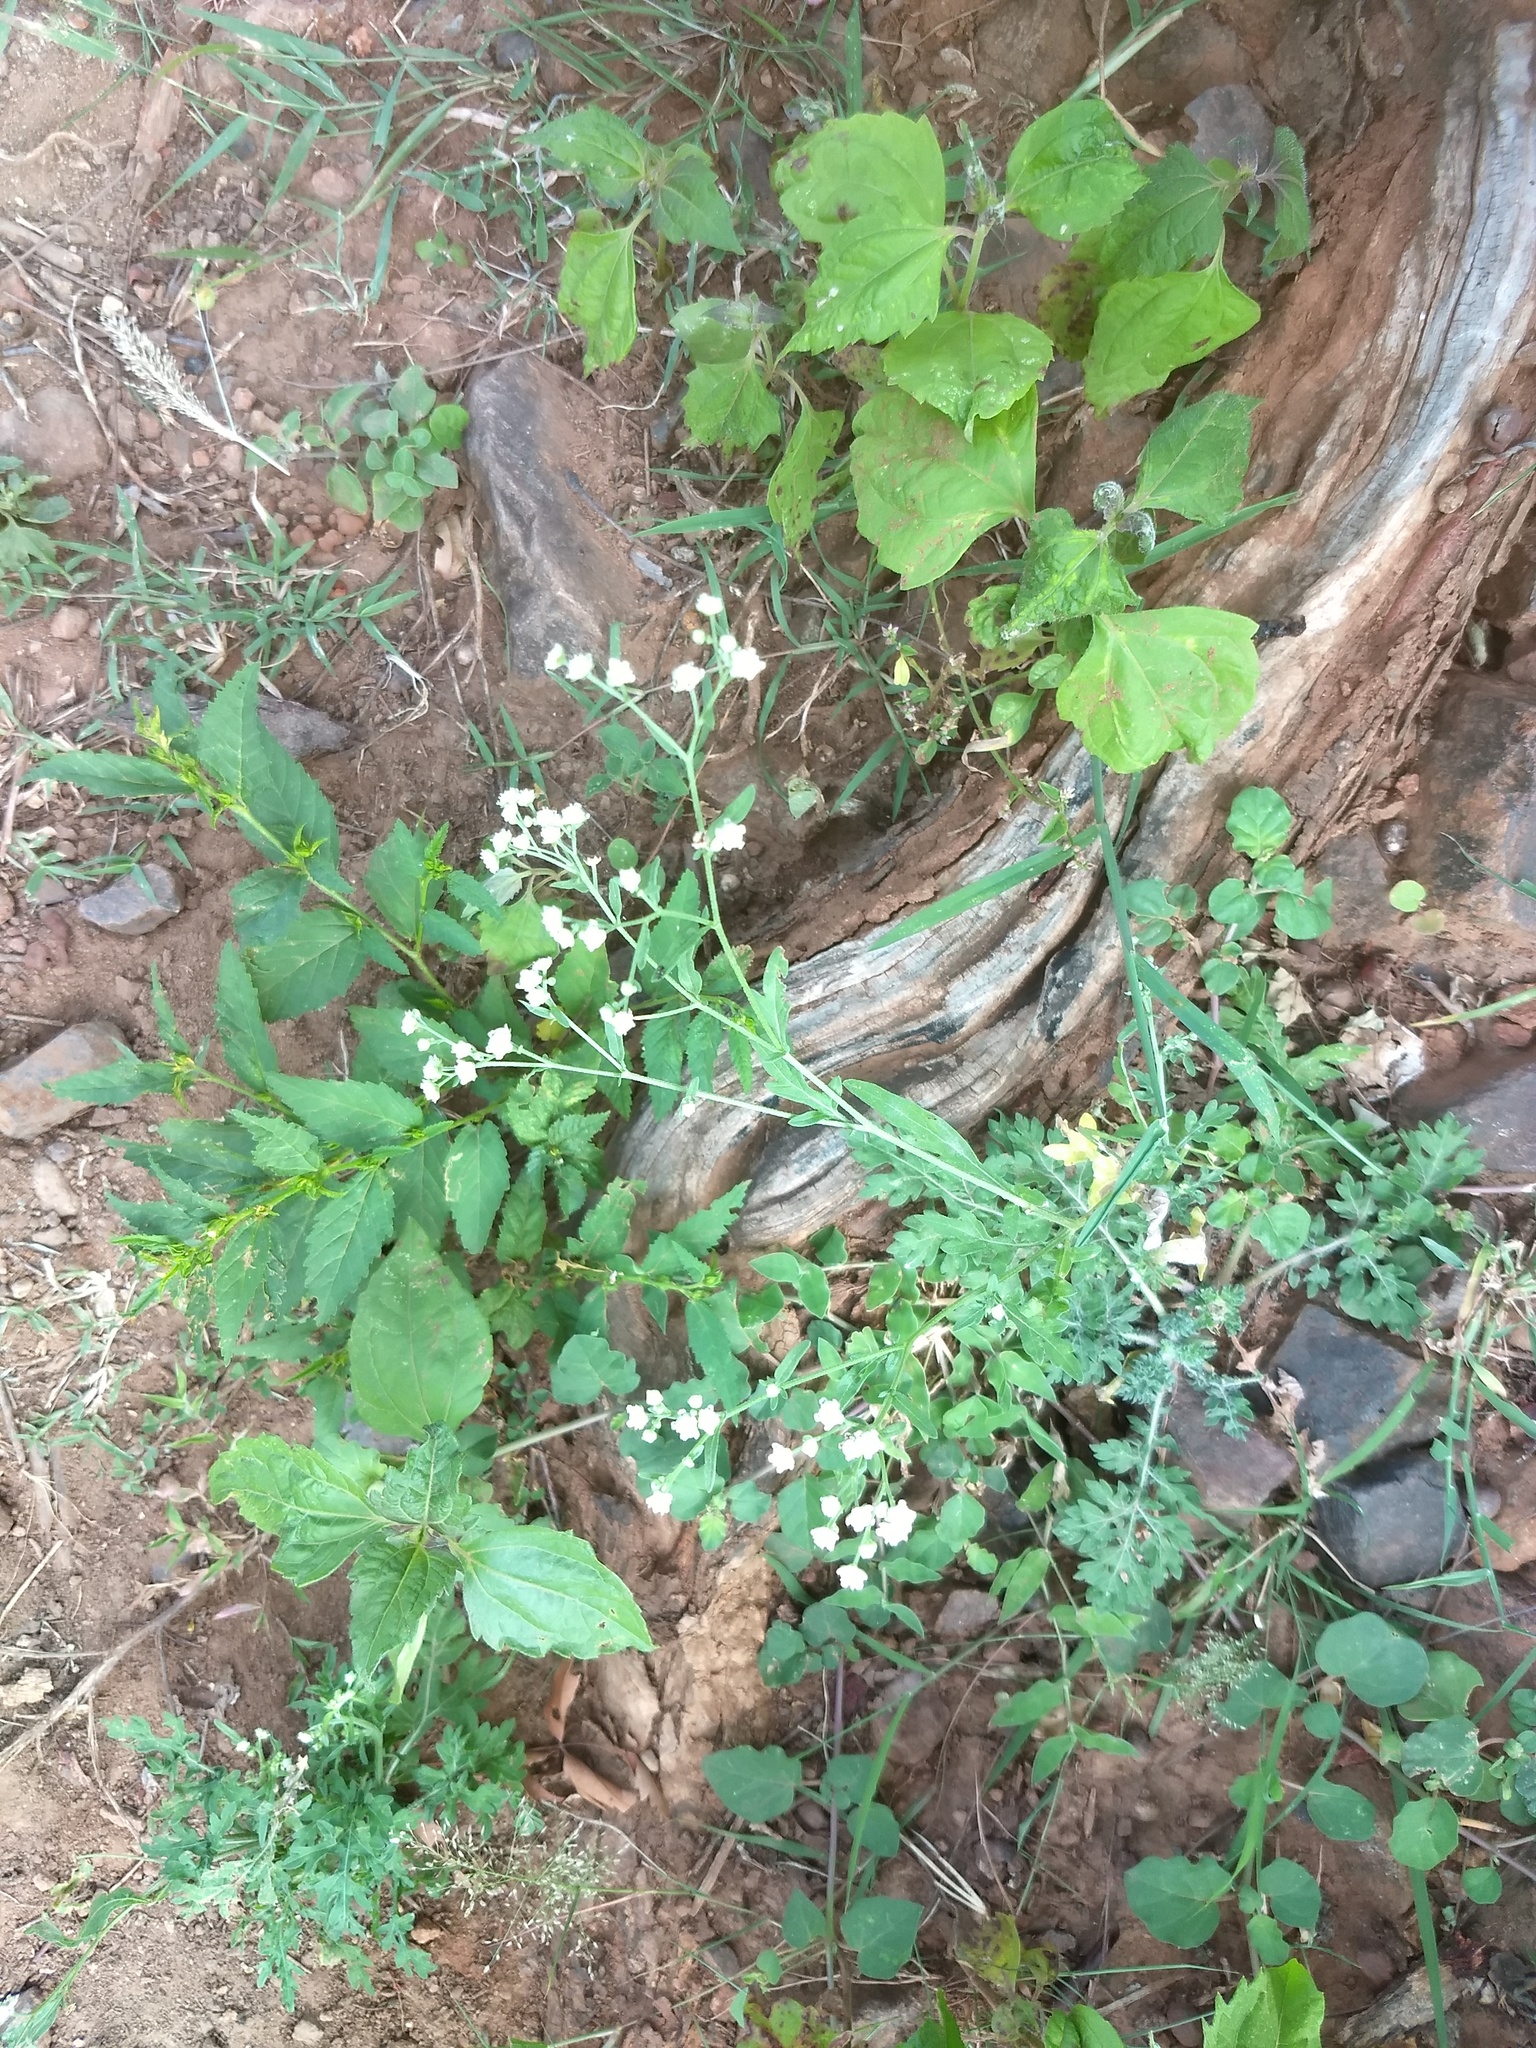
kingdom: Plantae
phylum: Tracheophyta
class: Magnoliopsida
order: Asterales
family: Asteraceae
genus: Parthenium
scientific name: Parthenium hysterophorus
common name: Santa maria feverfew
